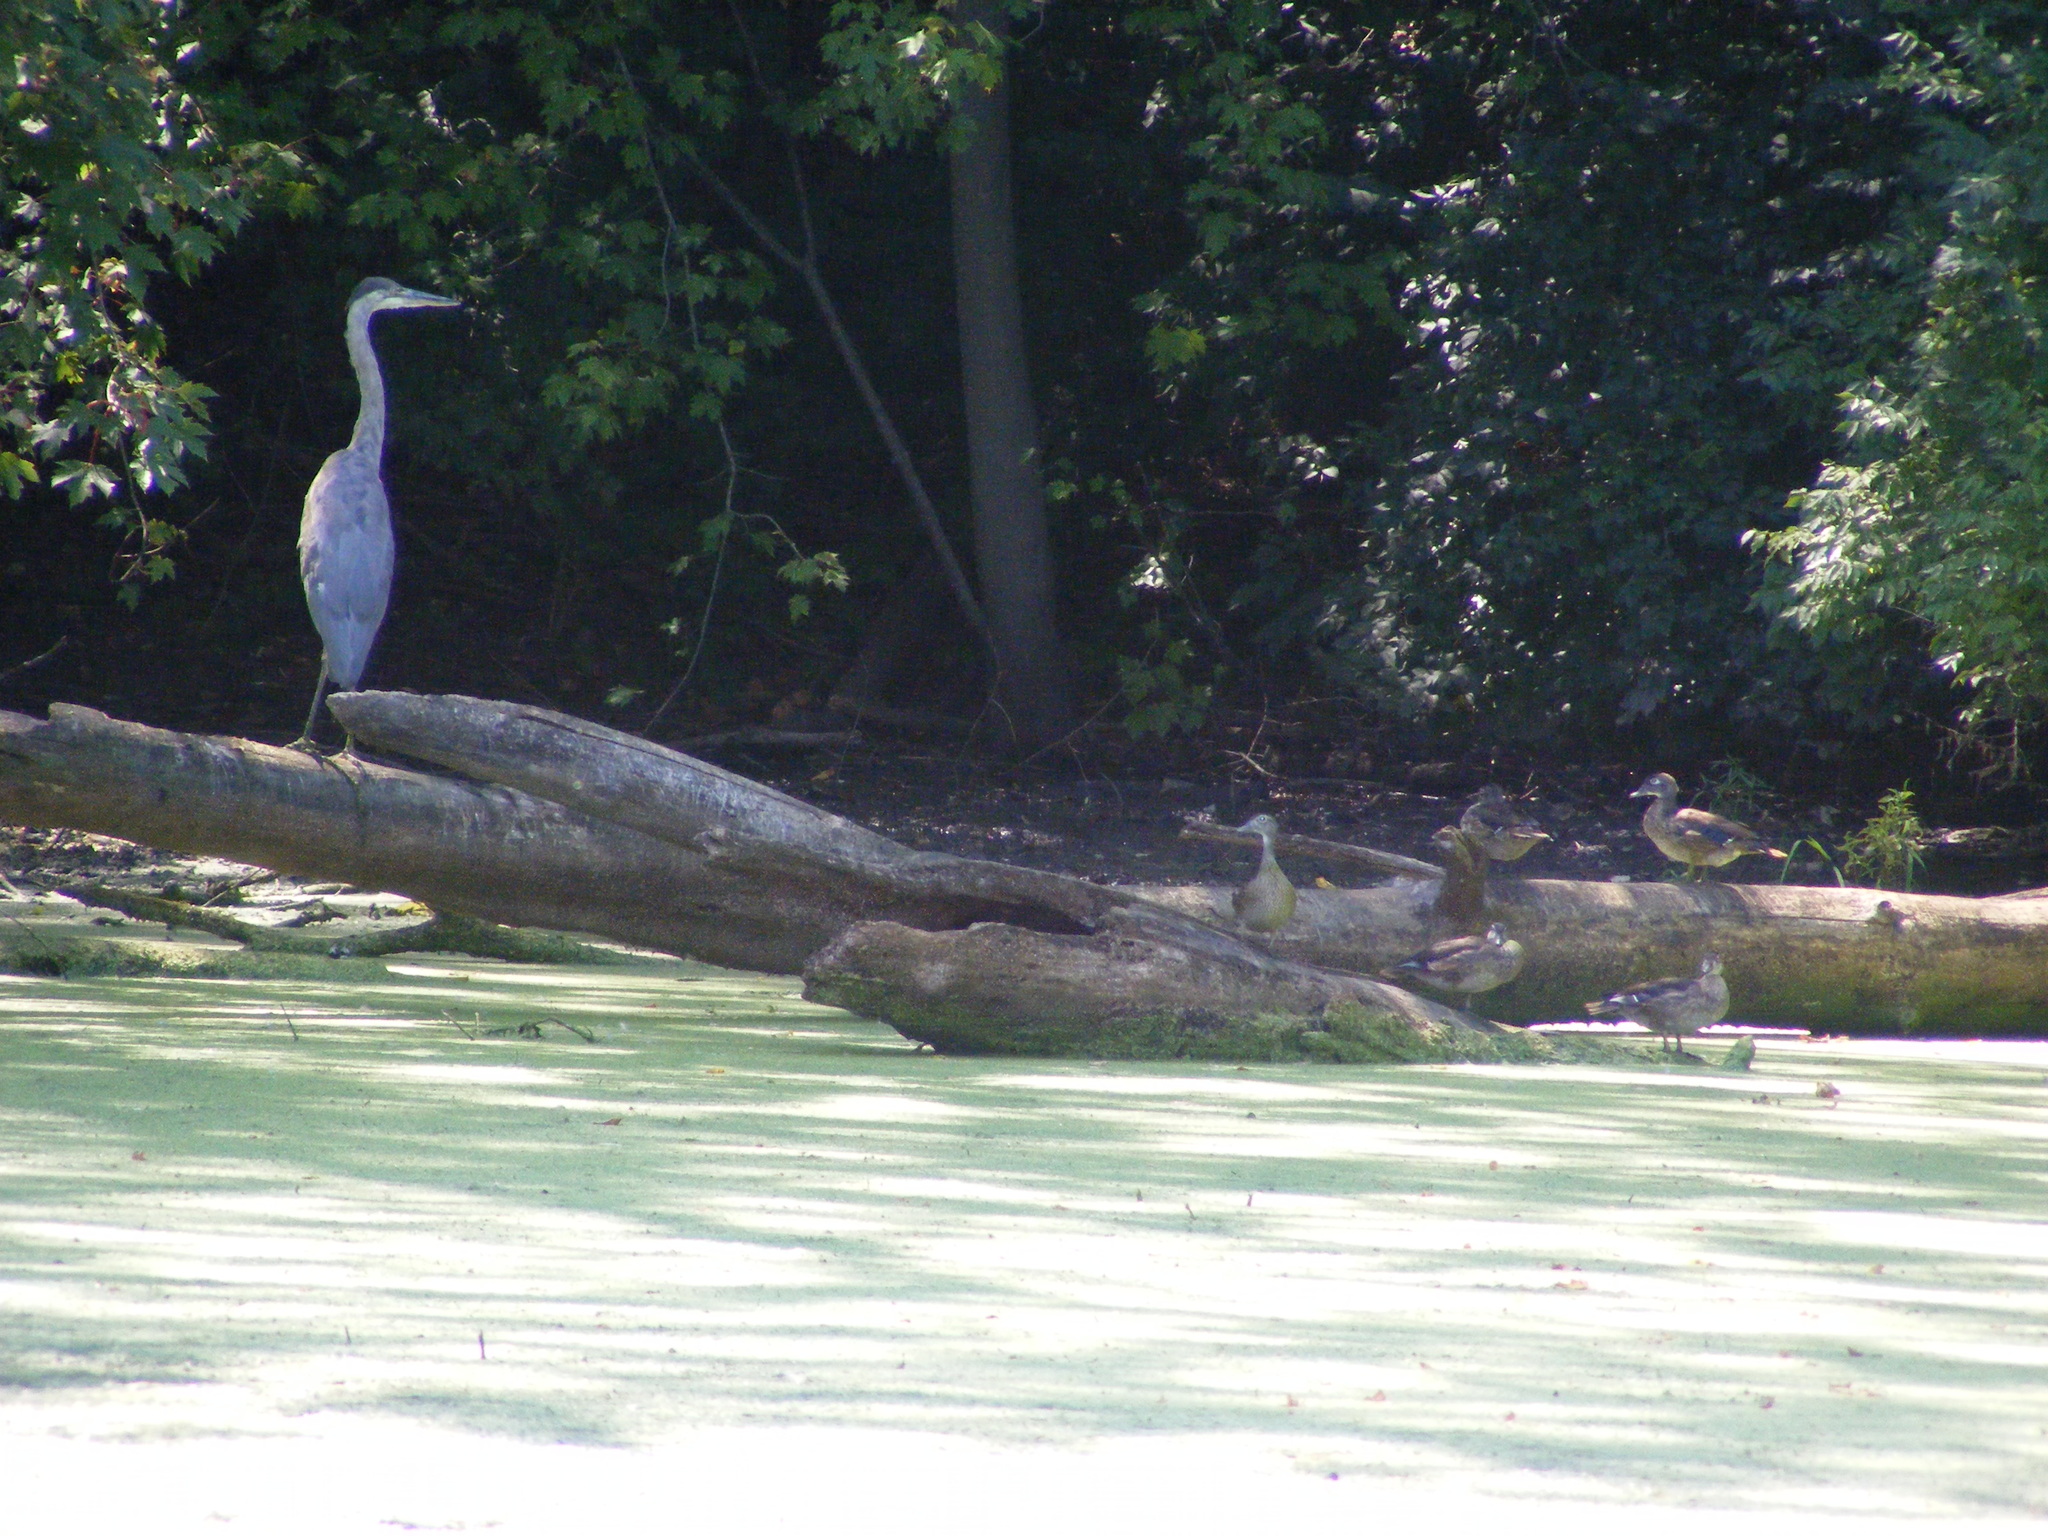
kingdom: Animalia
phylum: Chordata
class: Aves
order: Pelecaniformes
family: Ardeidae
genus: Ardea
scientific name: Ardea herodias
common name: Great blue heron
